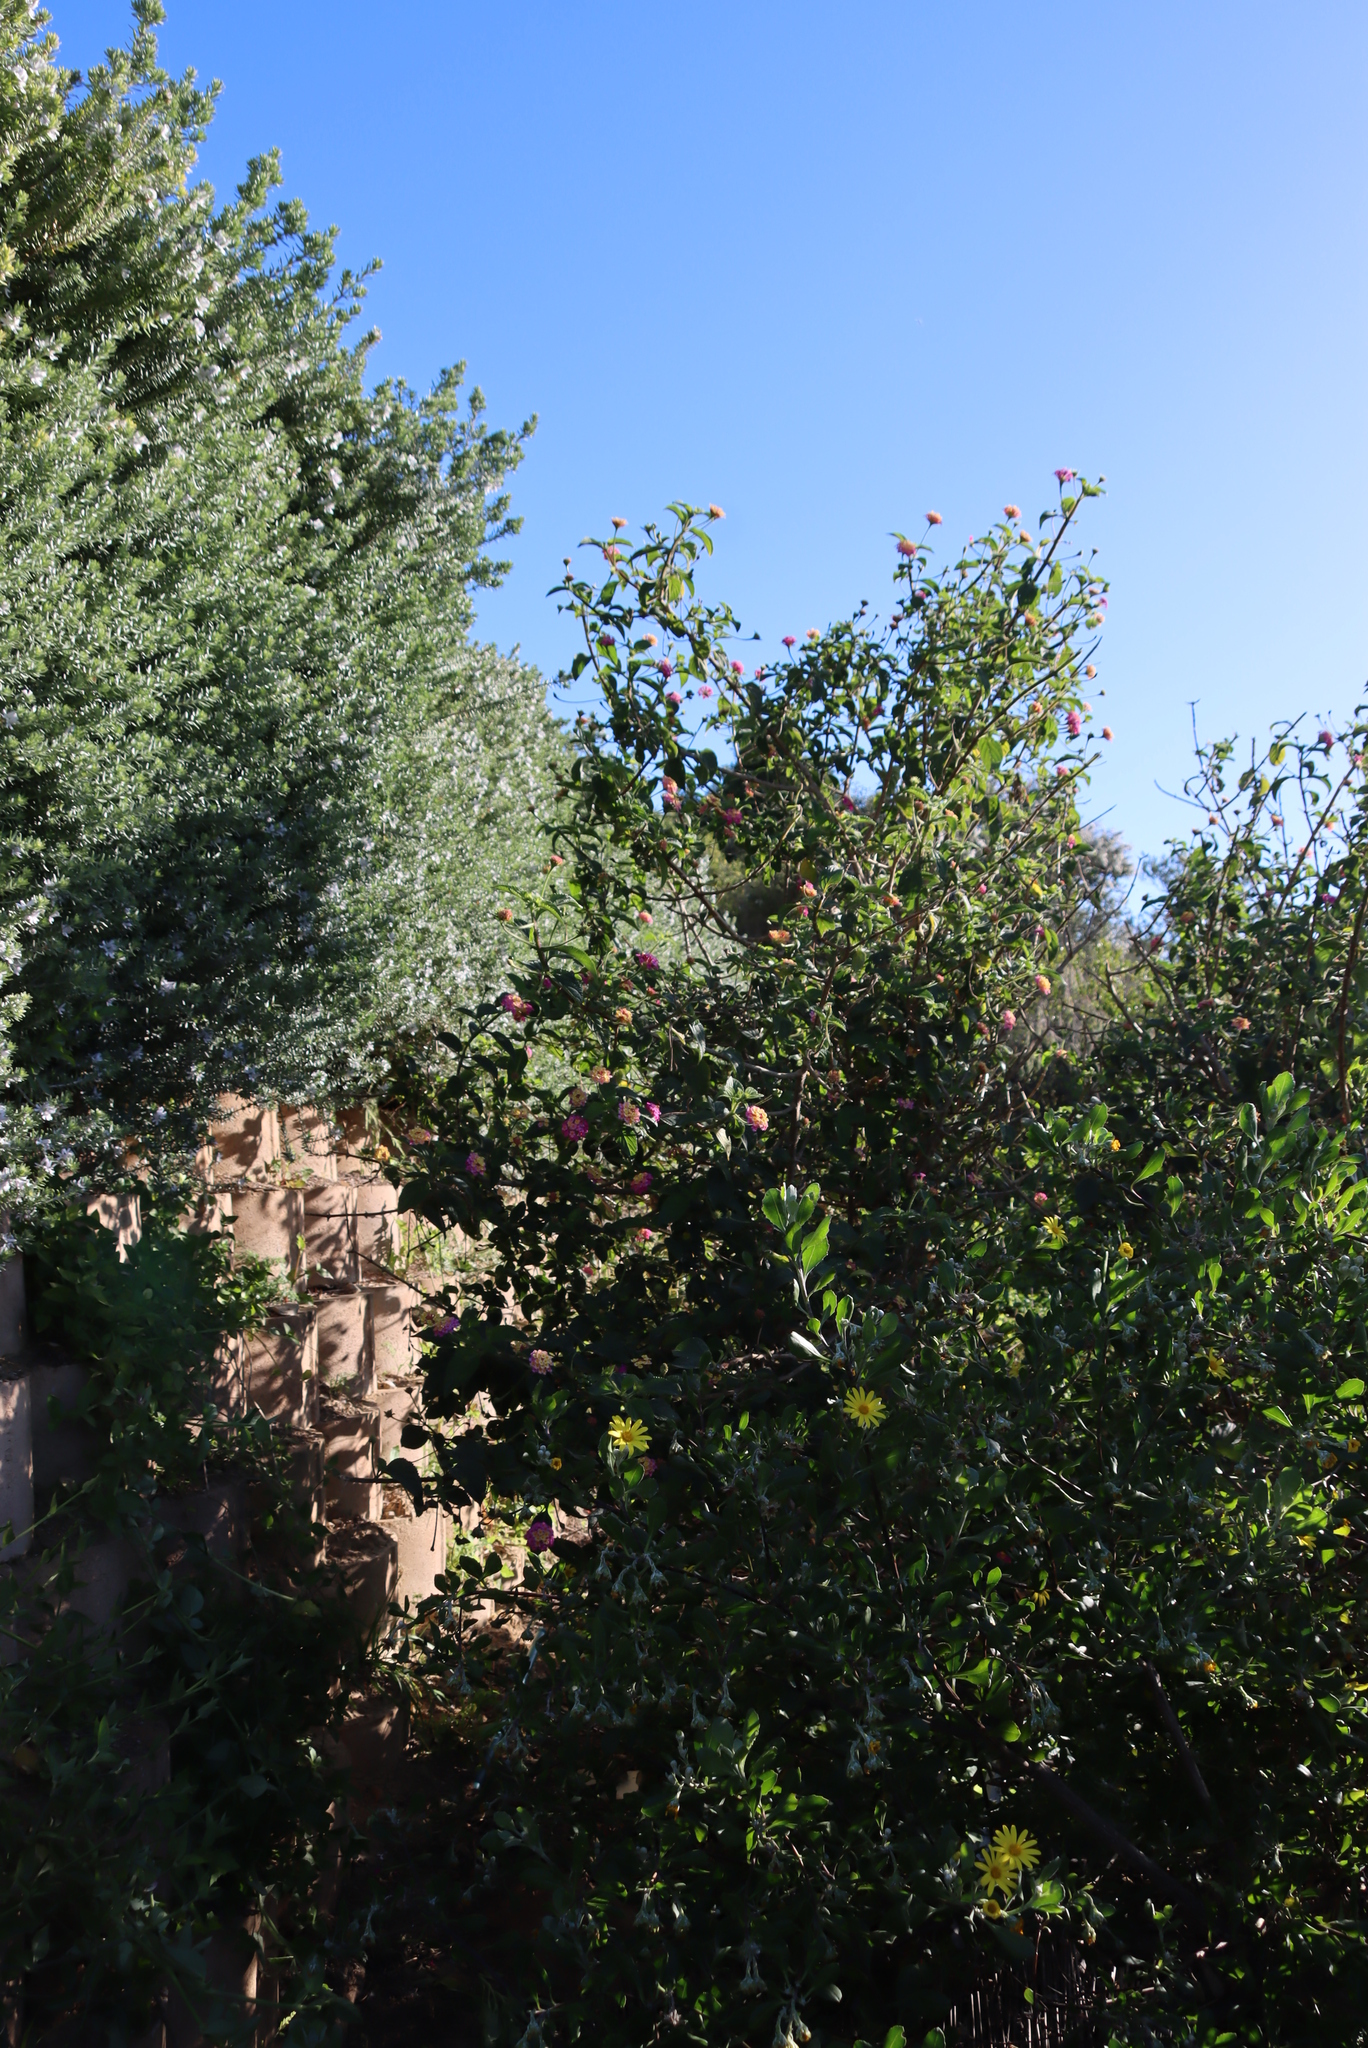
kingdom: Plantae
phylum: Tracheophyta
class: Magnoliopsida
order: Lamiales
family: Verbenaceae
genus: Lantana
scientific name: Lantana camara
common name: Lantana
